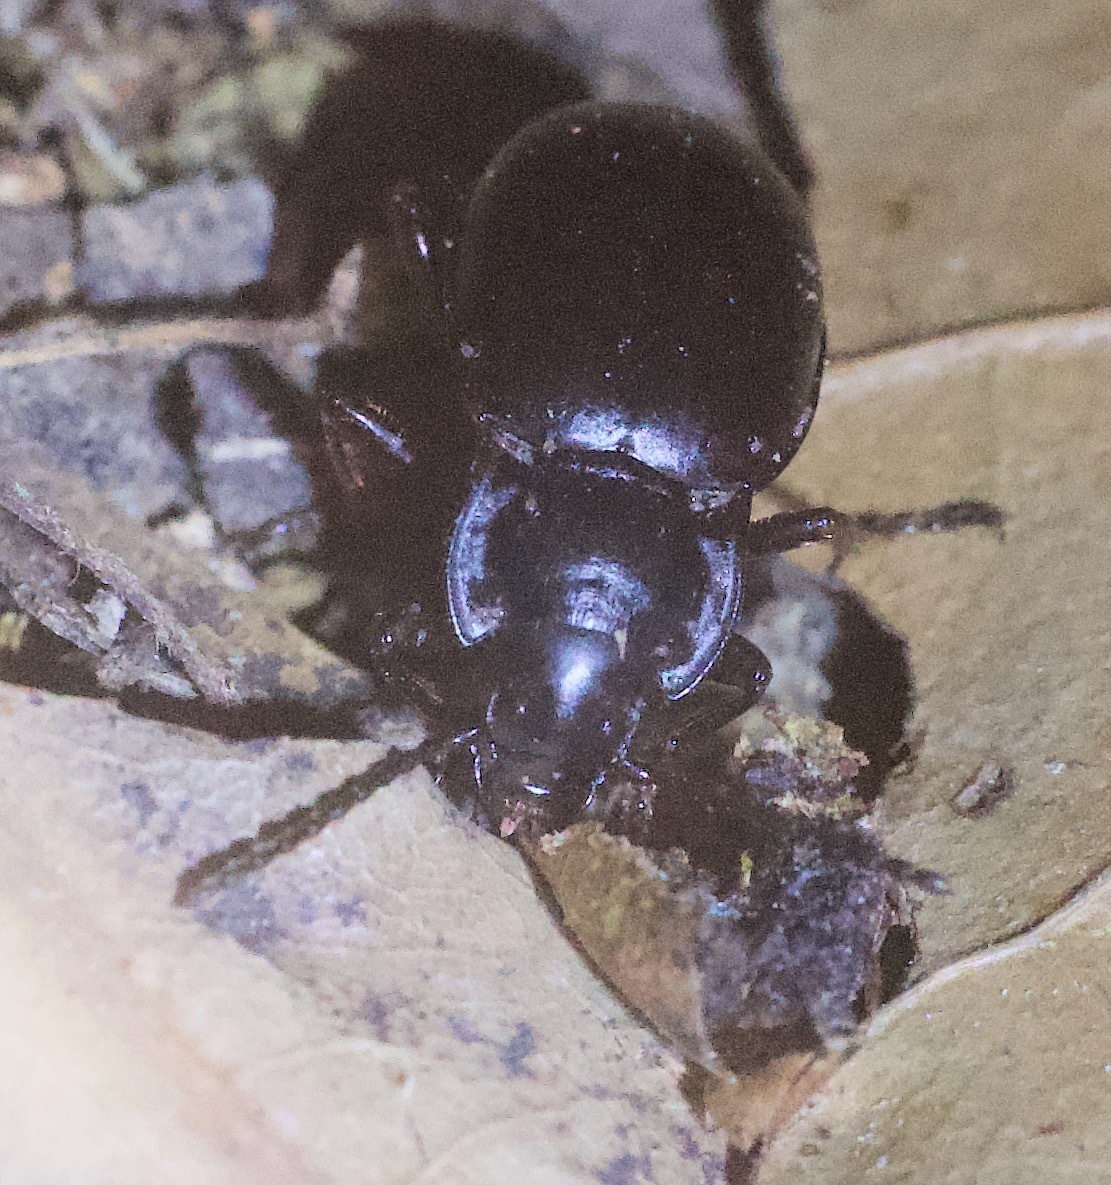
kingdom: Animalia
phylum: Arthropoda
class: Insecta
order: Coleoptera
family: Carabidae
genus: Metrius
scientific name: Metrius contractus
